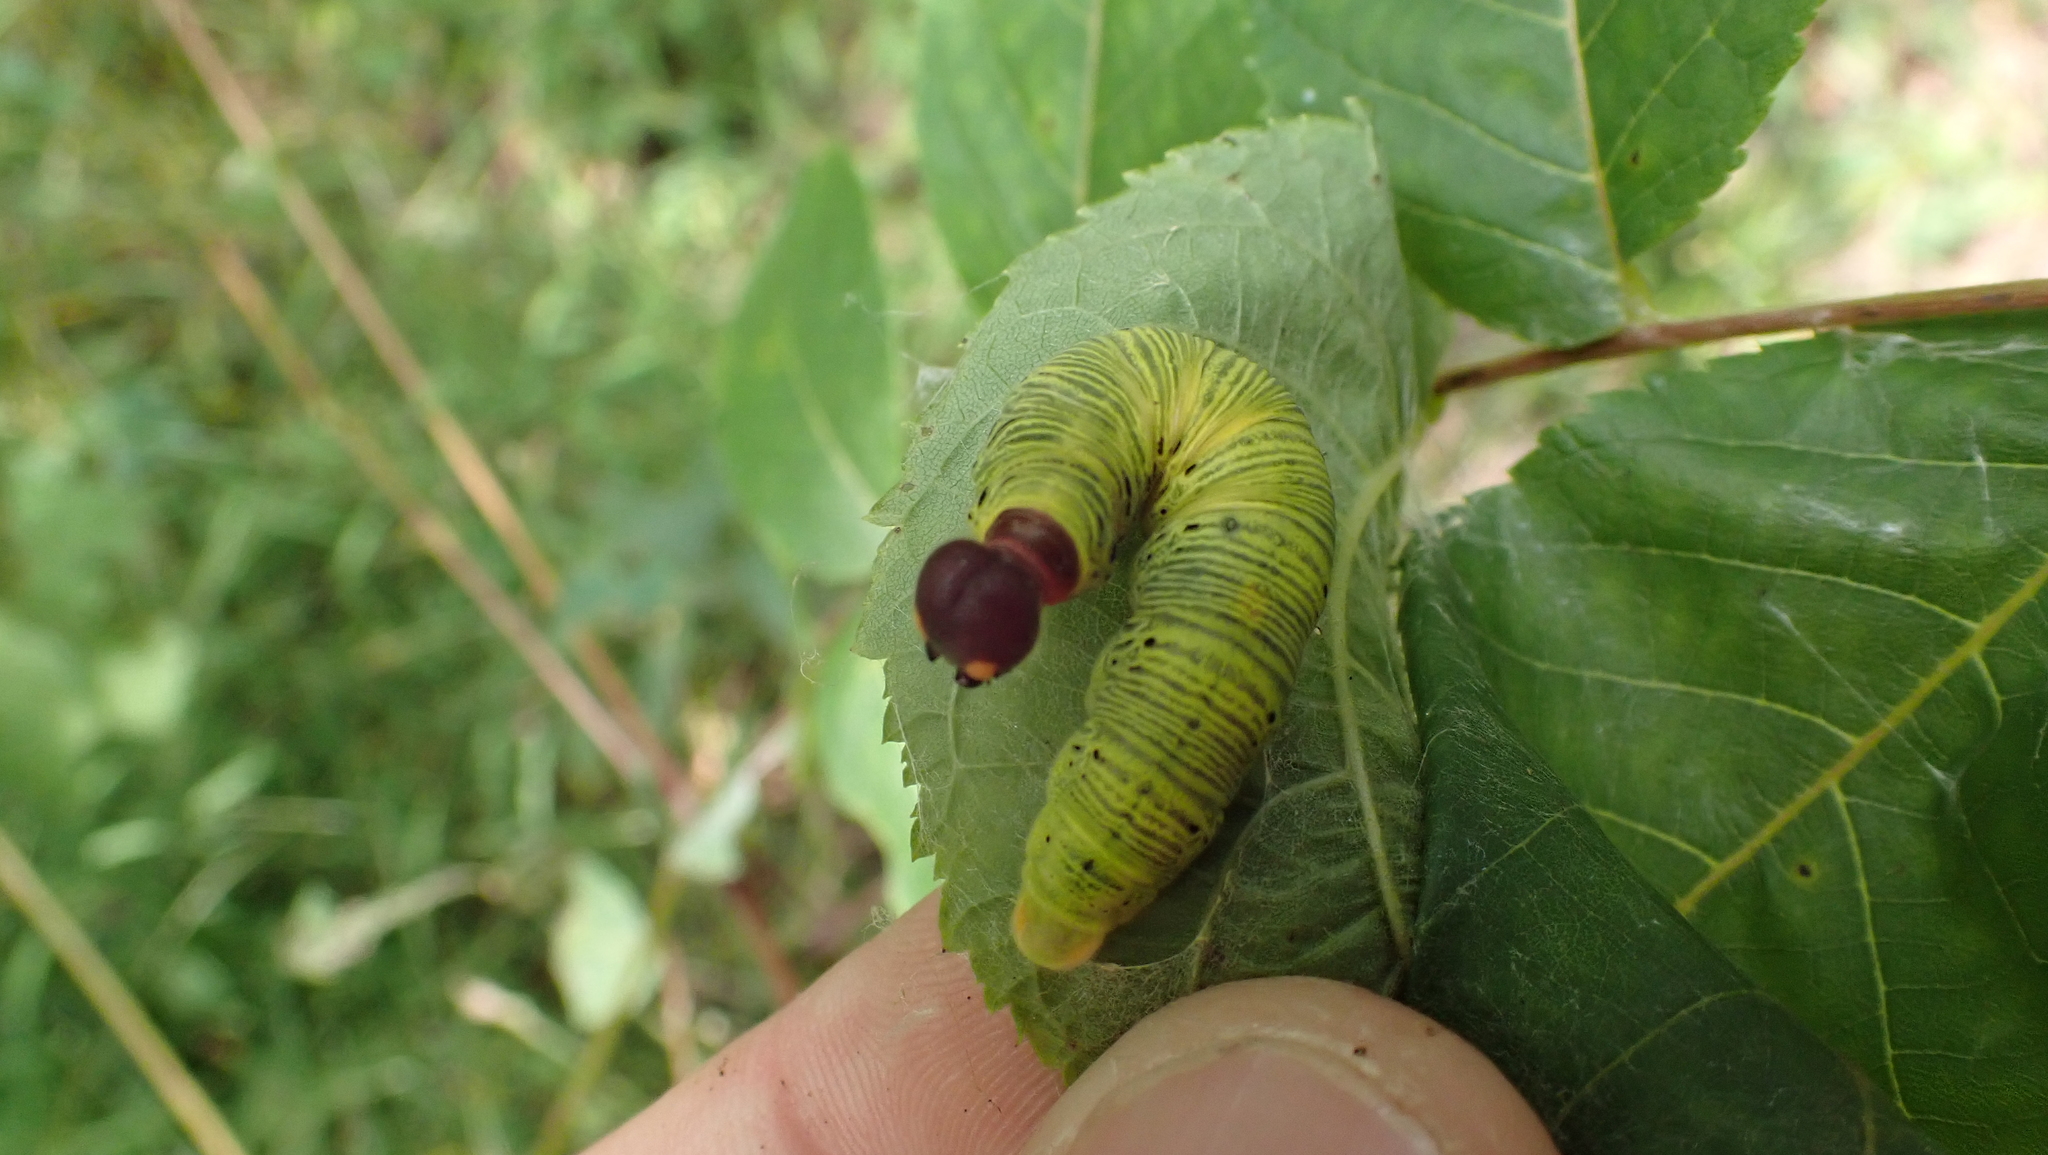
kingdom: Animalia
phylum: Arthropoda
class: Insecta
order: Lepidoptera
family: Hesperiidae
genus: Epargyreus
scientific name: Epargyreus clarus
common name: Silver-spotted skipper
